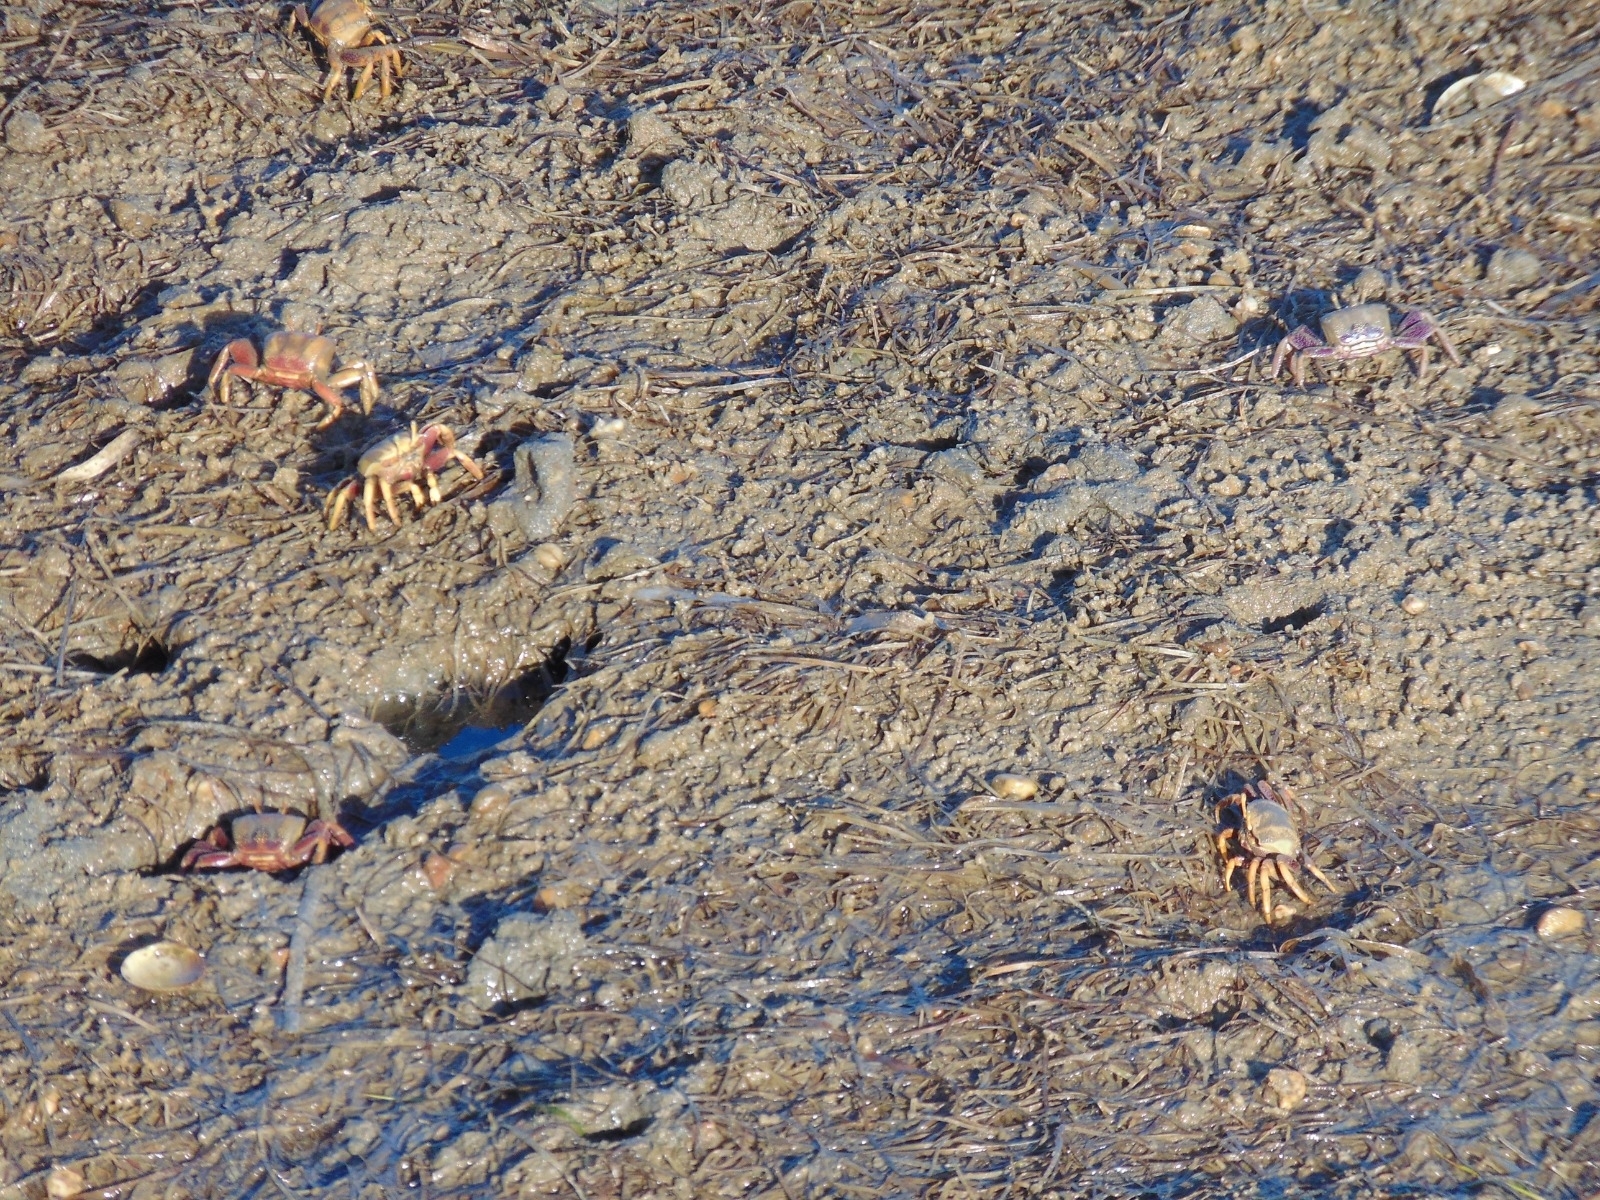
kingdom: Animalia
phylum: Arthropoda
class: Malacostraca
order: Decapoda
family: Ocypodidae
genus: Afruca
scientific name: Afruca tangeri
